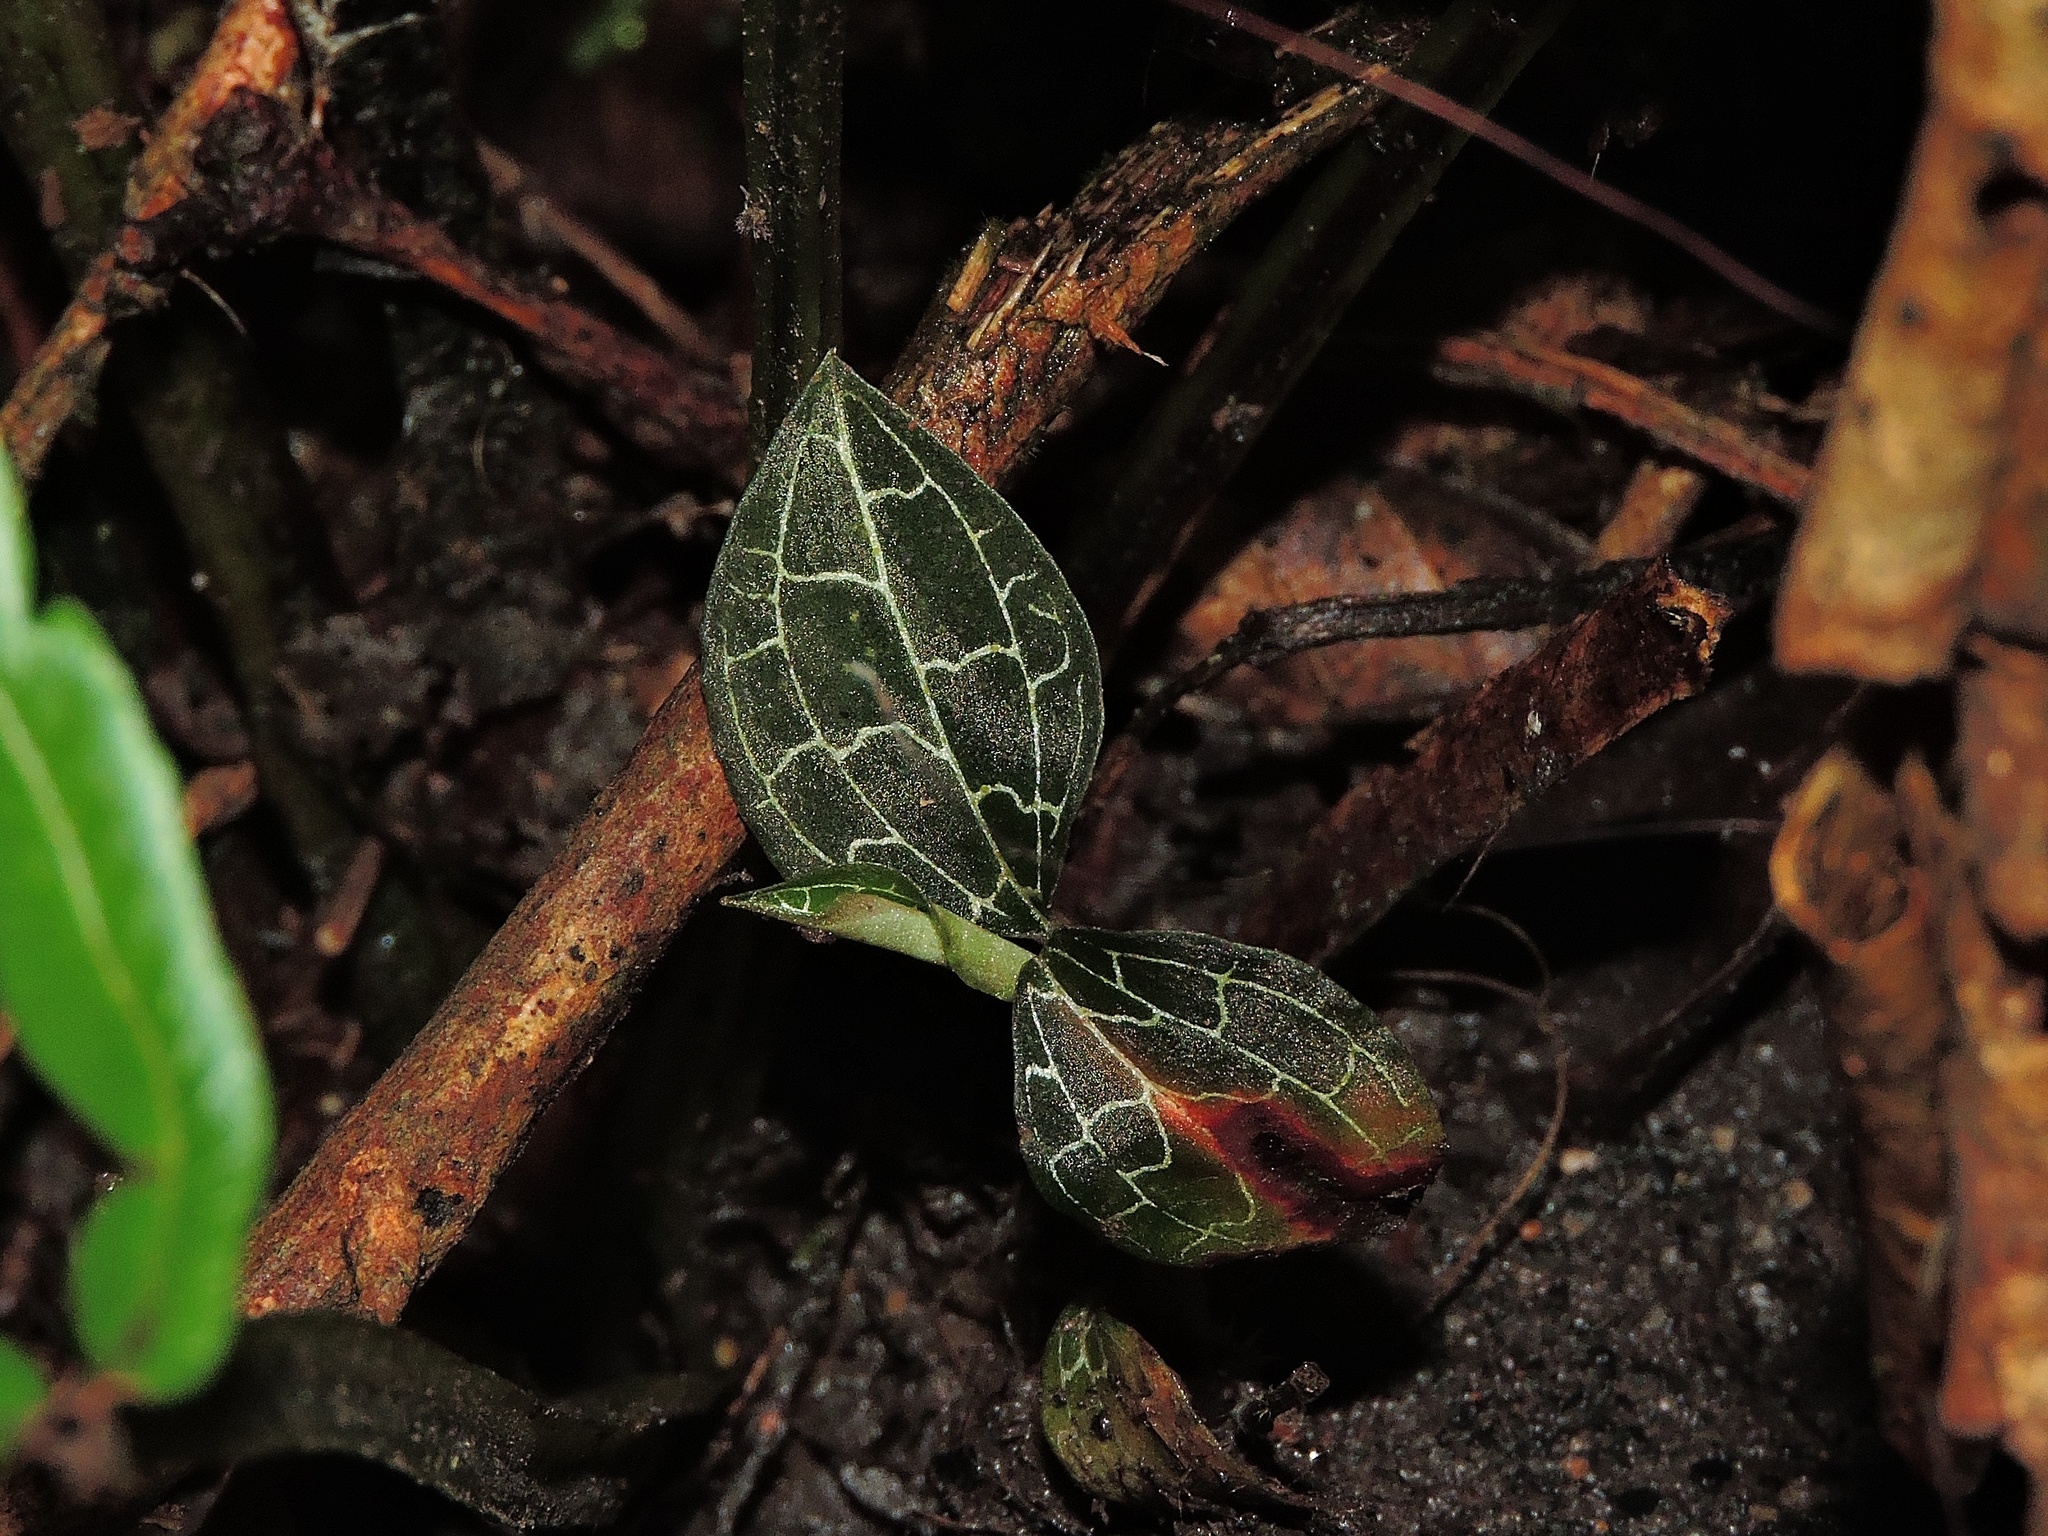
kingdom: Plantae
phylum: Tracheophyta
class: Liliopsida
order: Asparagales
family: Orchidaceae
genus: Anoectochilus
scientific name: Anoectochilus formosanus
